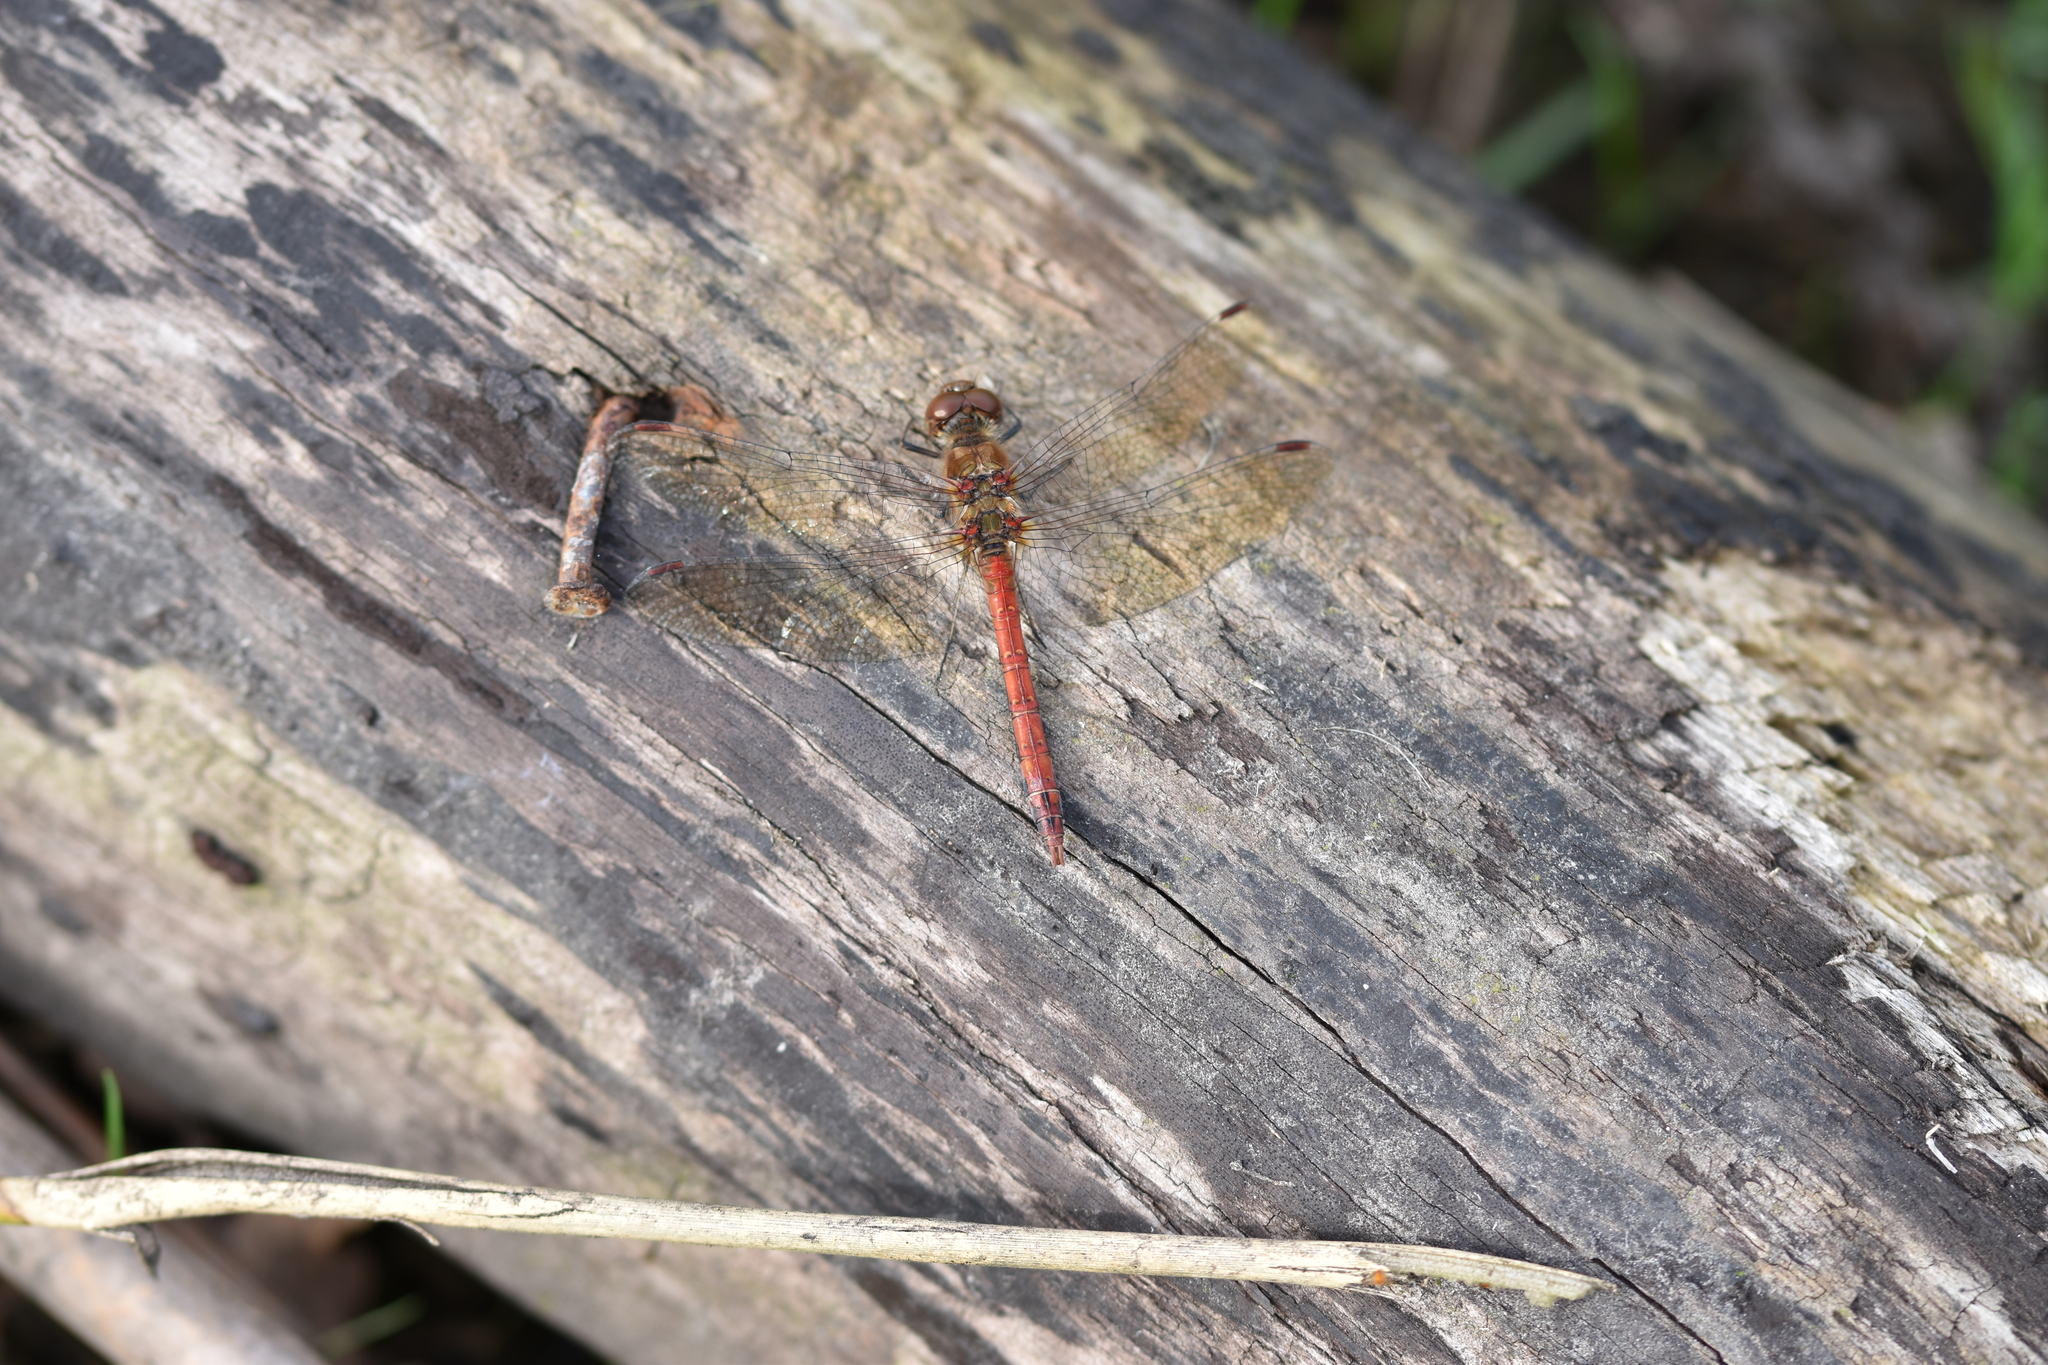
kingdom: Animalia
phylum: Arthropoda
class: Insecta
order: Odonata
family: Libellulidae
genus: Sympetrum
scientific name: Sympetrum striolatum
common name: Common darter
